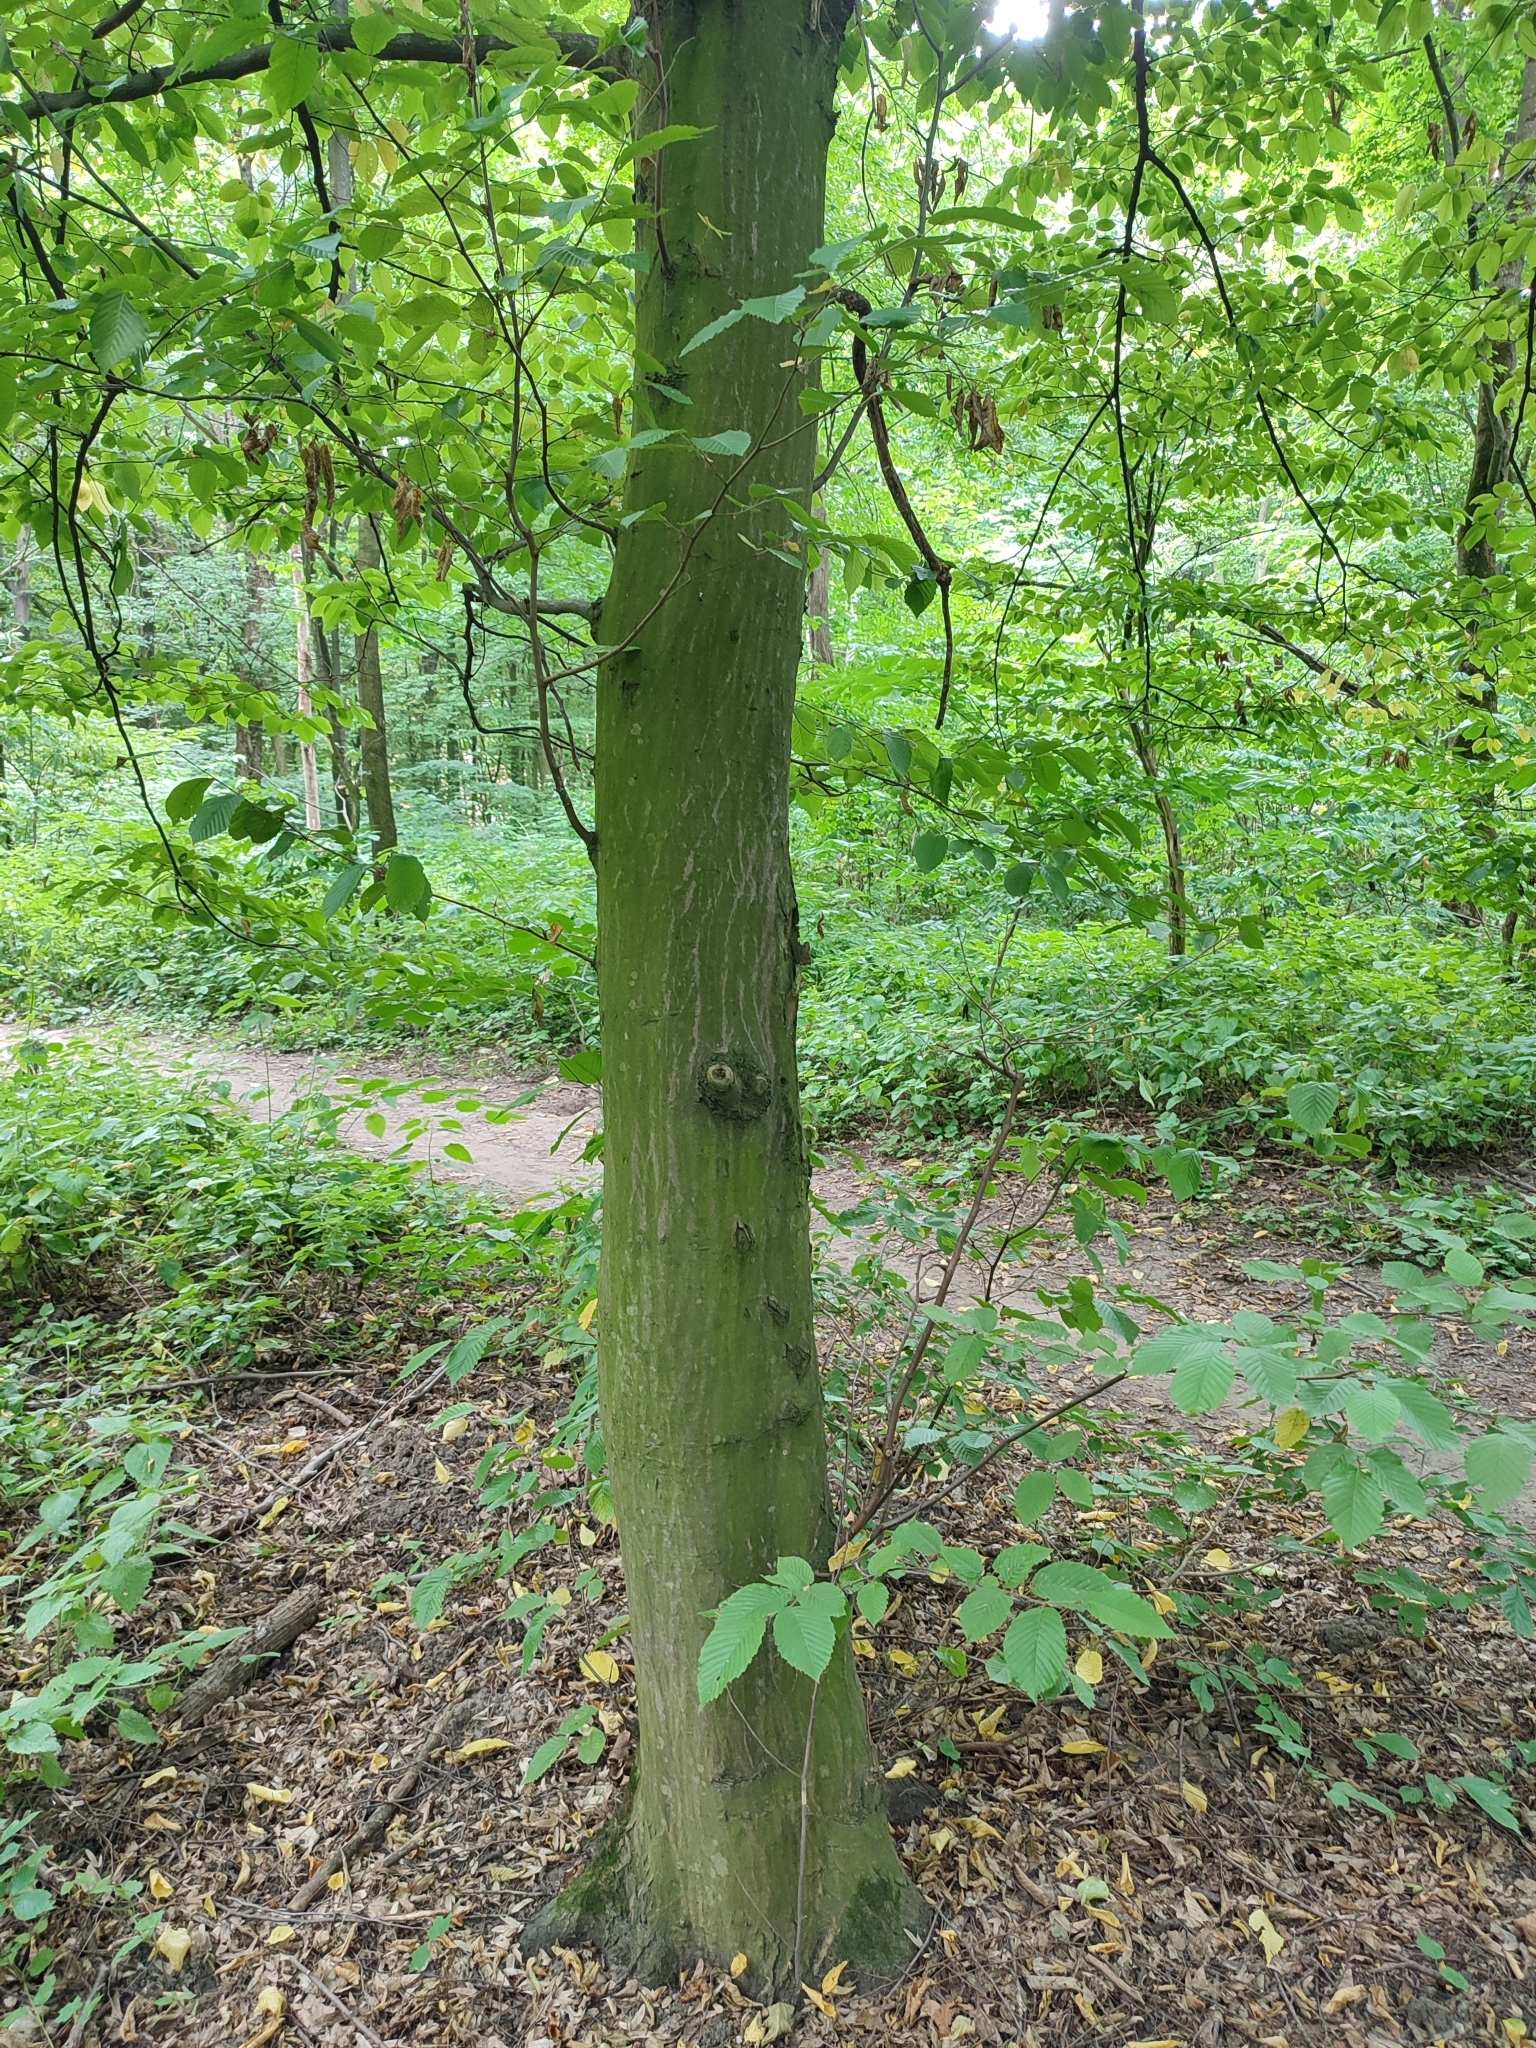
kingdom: Plantae
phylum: Tracheophyta
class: Magnoliopsida
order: Fagales
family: Betulaceae
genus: Carpinus
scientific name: Carpinus betulus
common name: Hornbeam
